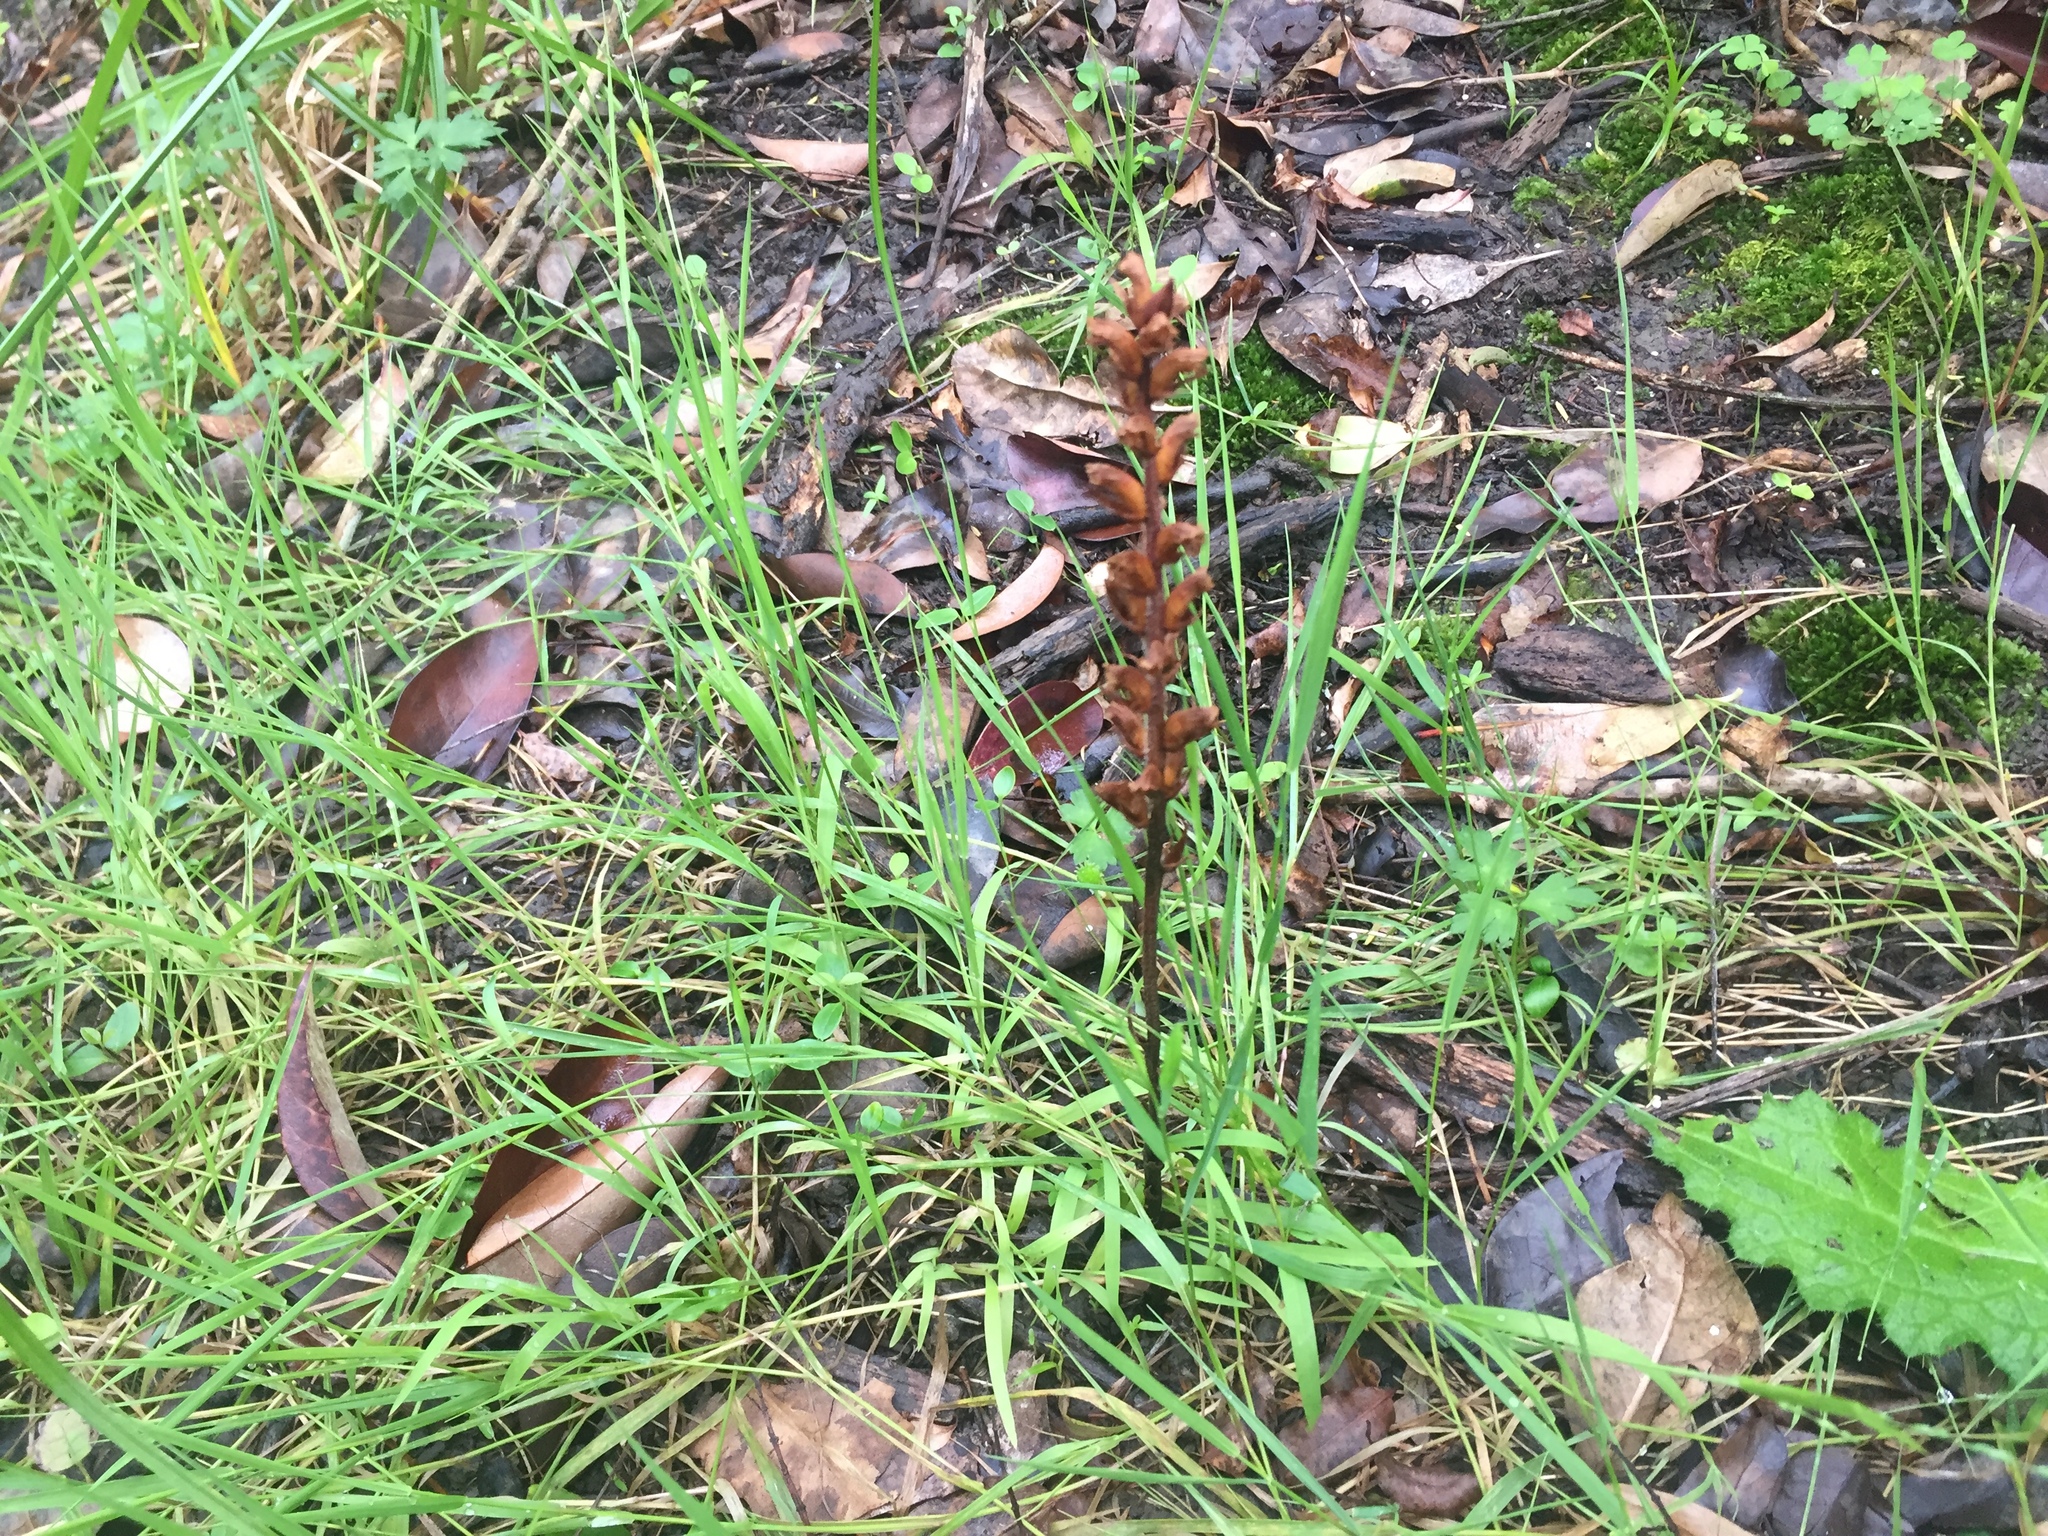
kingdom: Plantae
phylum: Tracheophyta
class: Magnoliopsida
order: Lamiales
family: Orobanchaceae
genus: Orobanche
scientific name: Orobanche minor
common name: Common broomrape
